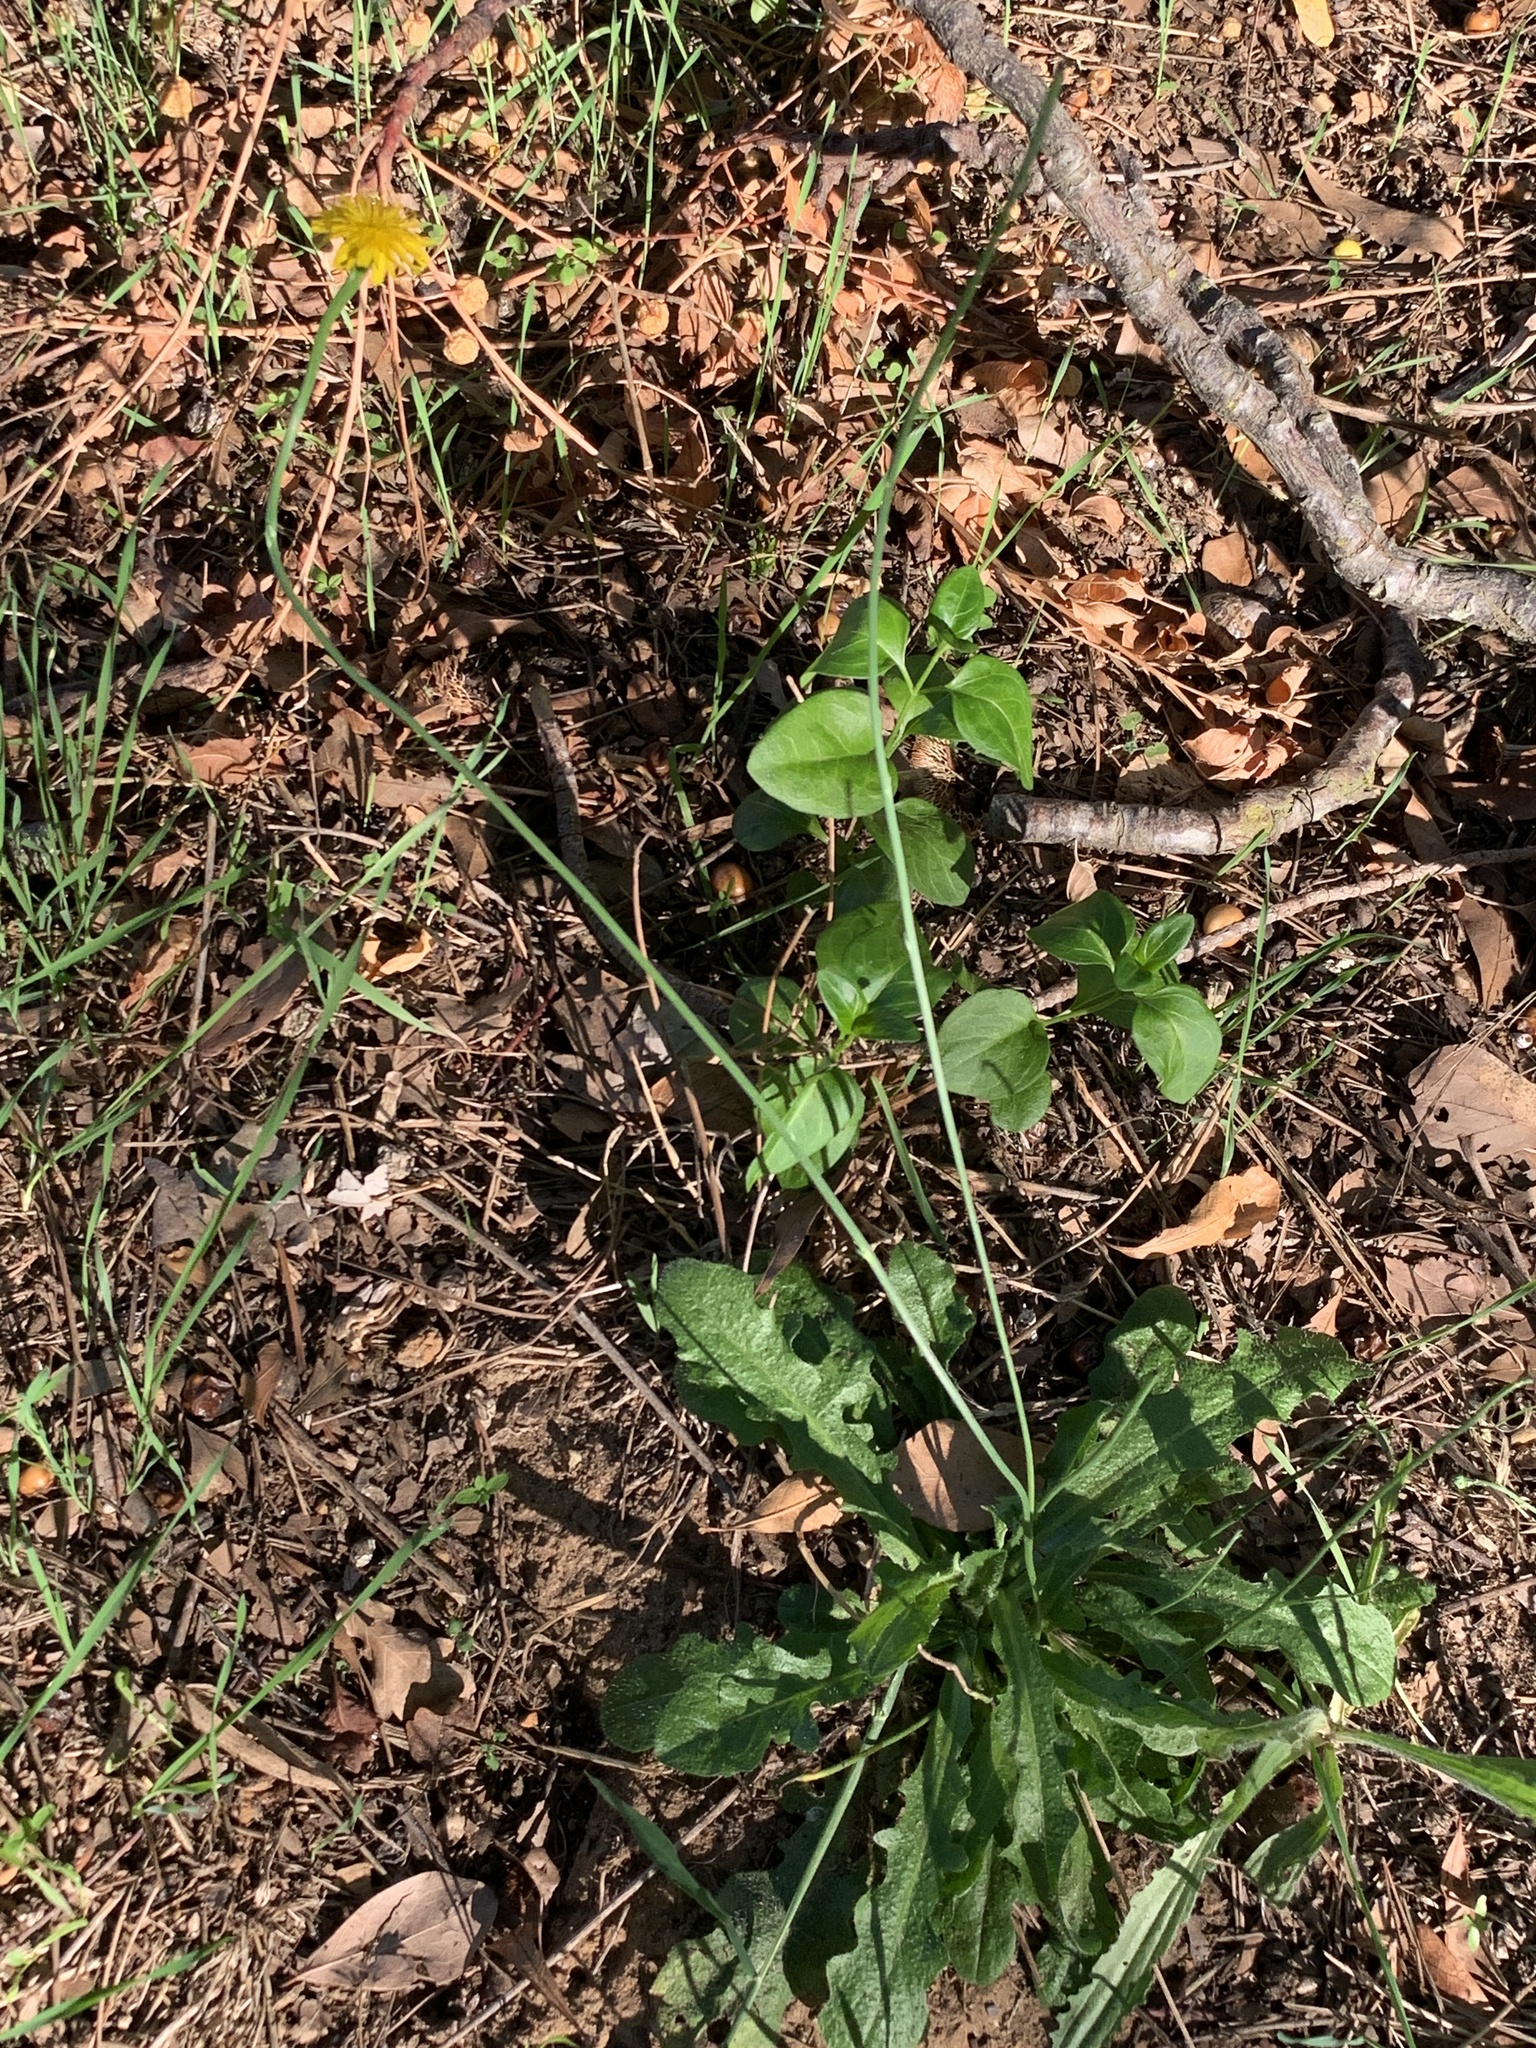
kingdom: Plantae
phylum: Tracheophyta
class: Magnoliopsida
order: Asterales
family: Asteraceae
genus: Hypochaeris
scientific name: Hypochaeris radicata
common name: Flatweed
